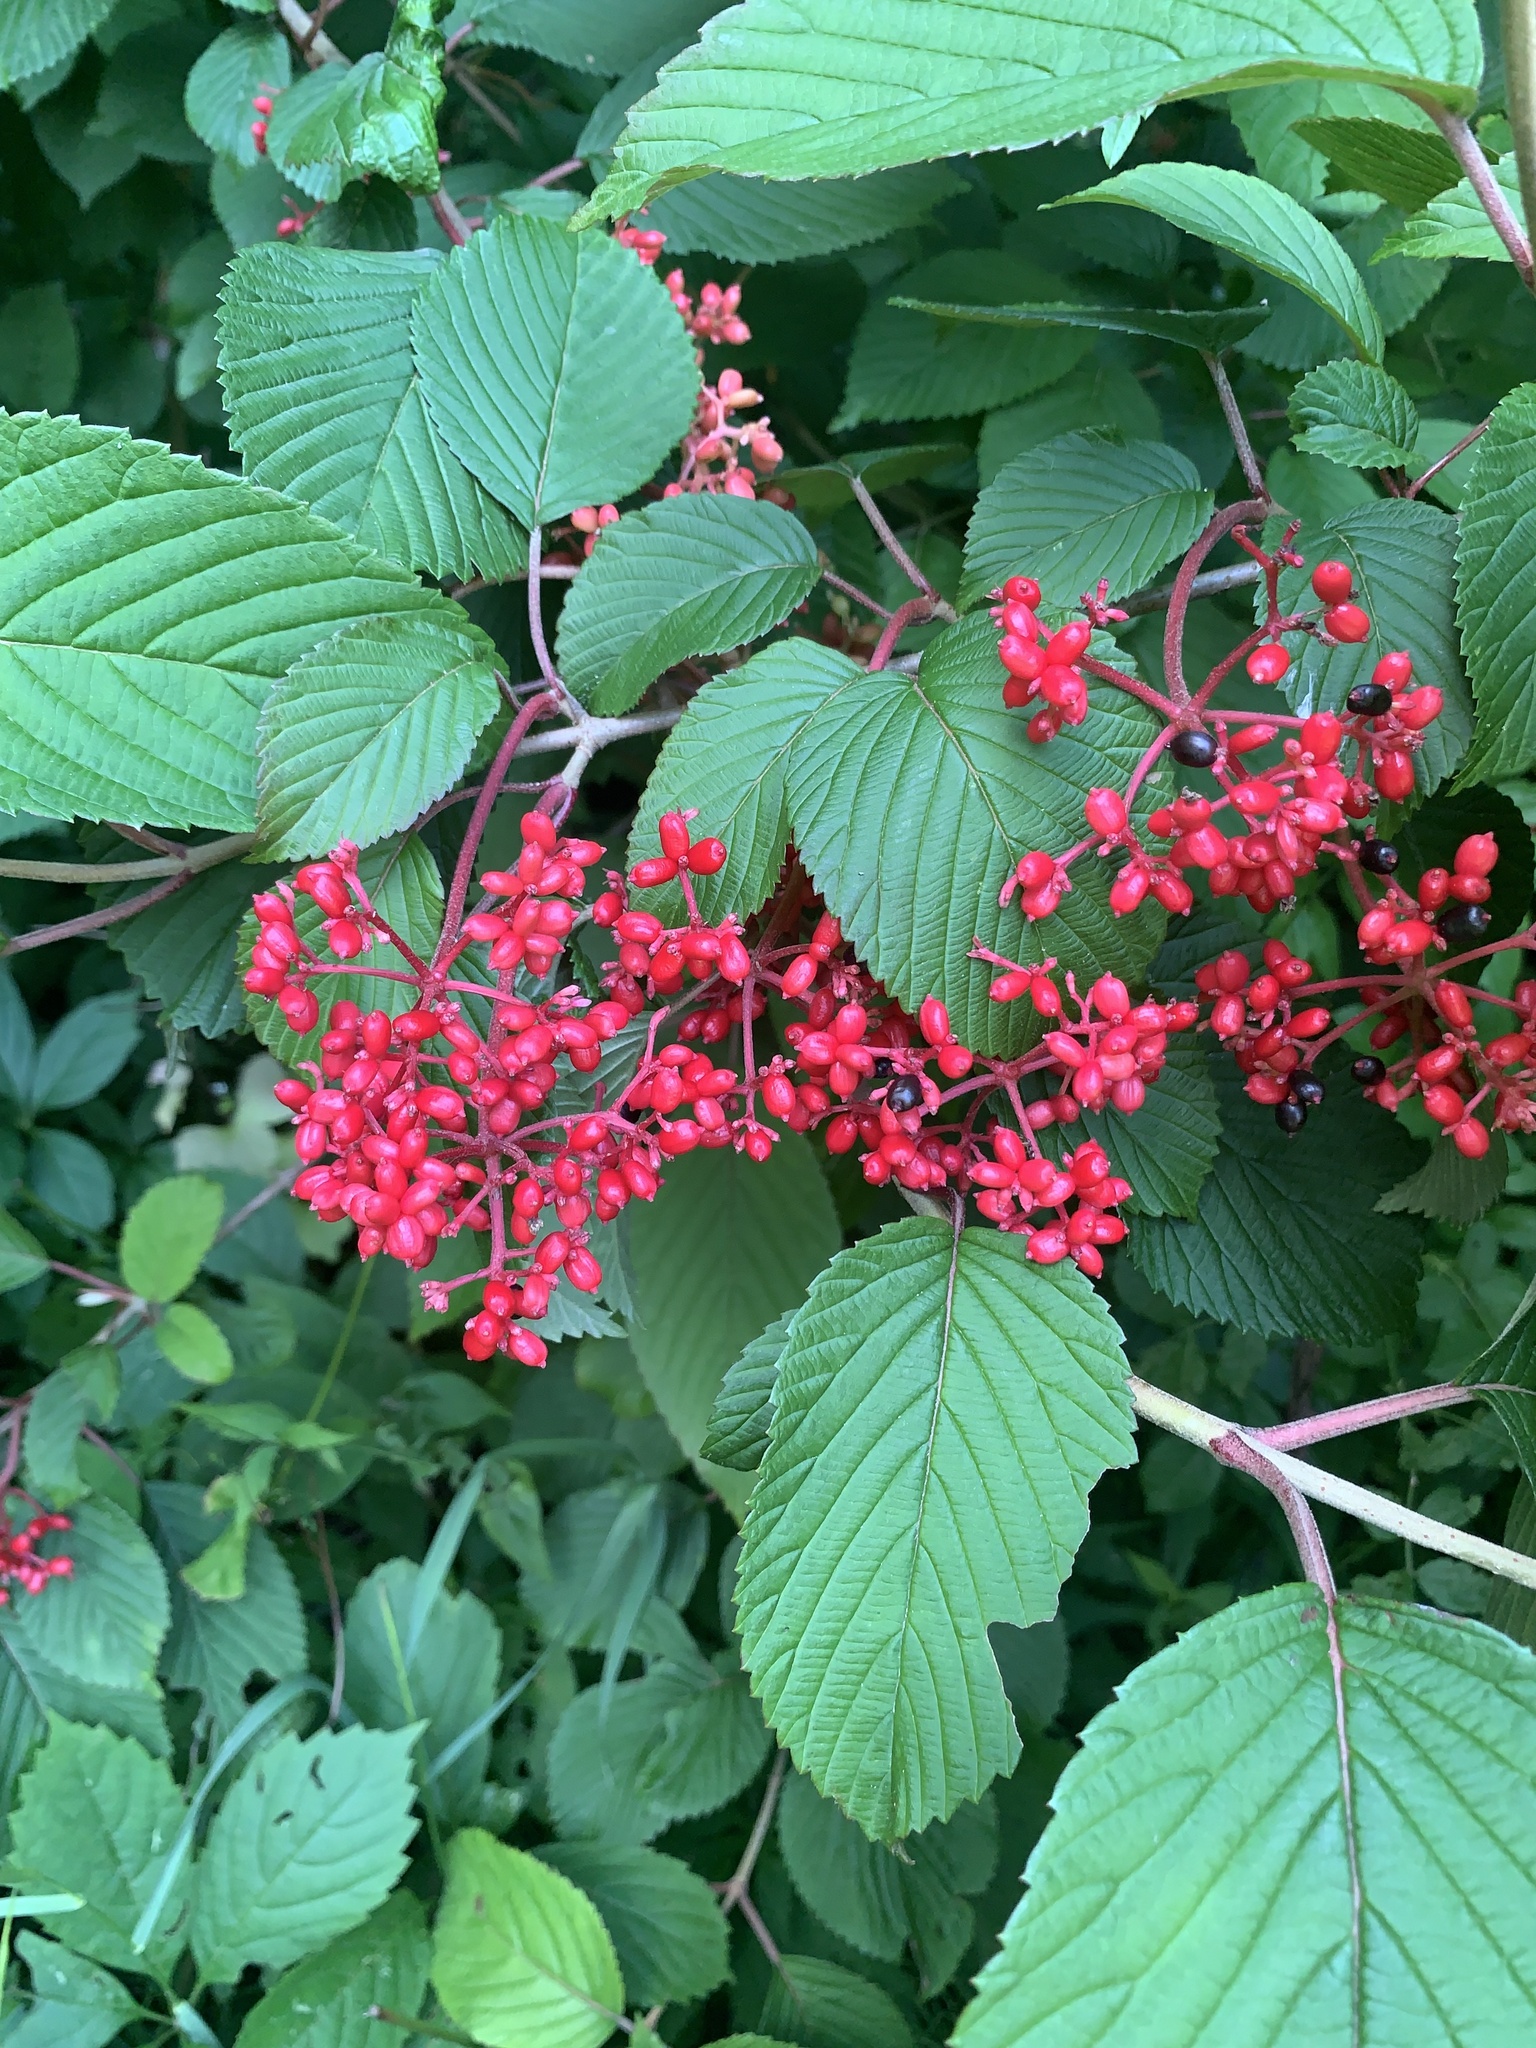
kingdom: Plantae
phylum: Tracheophyta
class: Magnoliopsida
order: Dipsacales
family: Viburnaceae
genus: Viburnum
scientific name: Viburnum plicatum
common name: Japanese snowball
